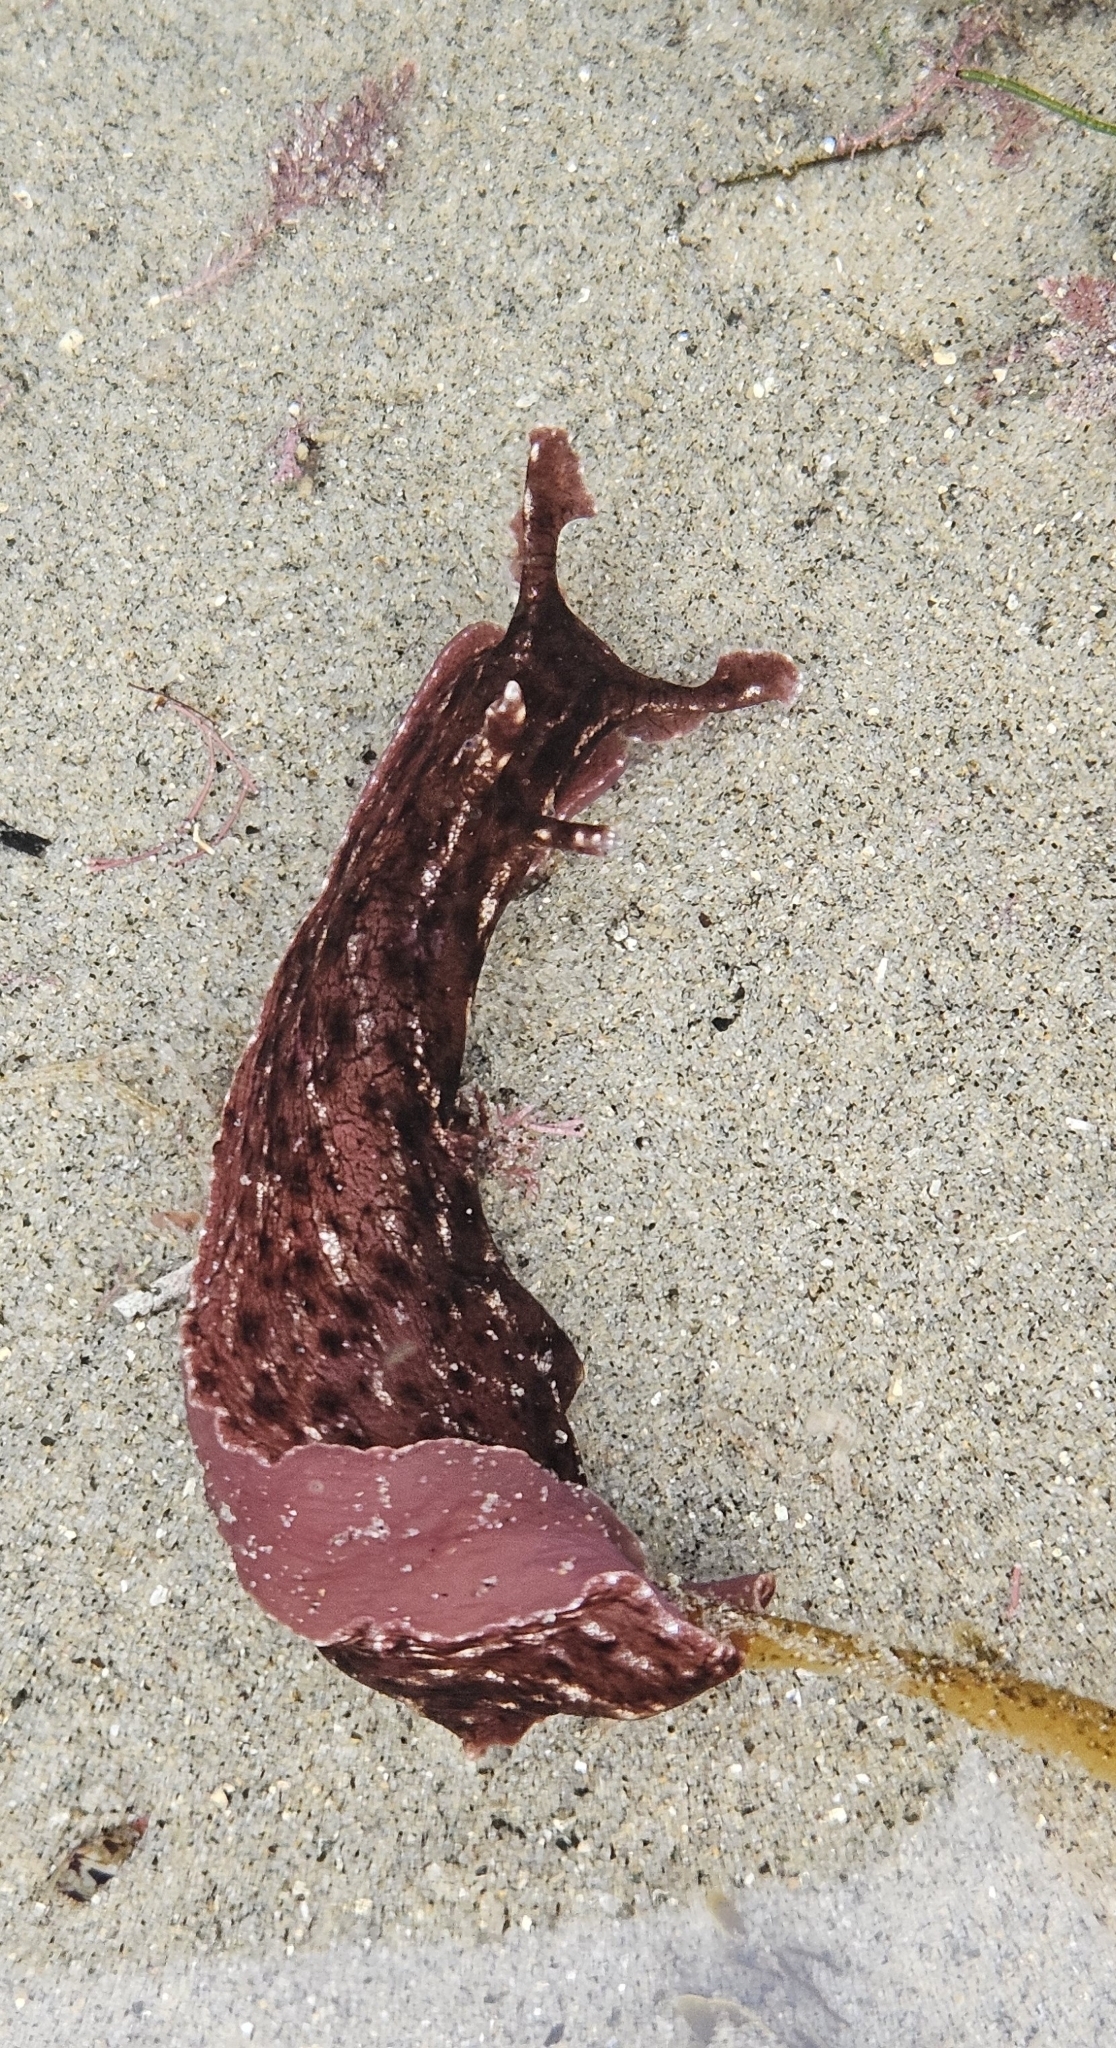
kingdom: Animalia
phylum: Mollusca
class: Gastropoda
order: Aplysiida
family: Aplysiidae
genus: Aplysia
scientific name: Aplysia californica
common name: California seahare
